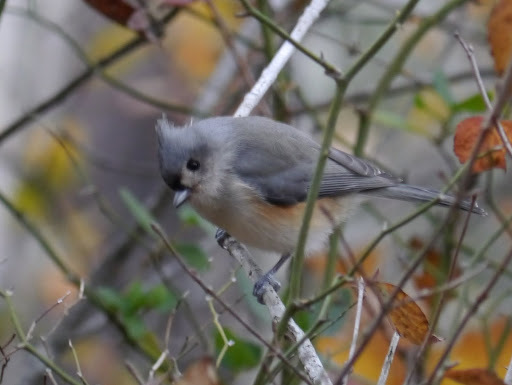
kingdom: Animalia
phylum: Chordata
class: Aves
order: Passeriformes
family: Paridae
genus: Baeolophus
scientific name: Baeolophus bicolor
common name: Tufted titmouse
